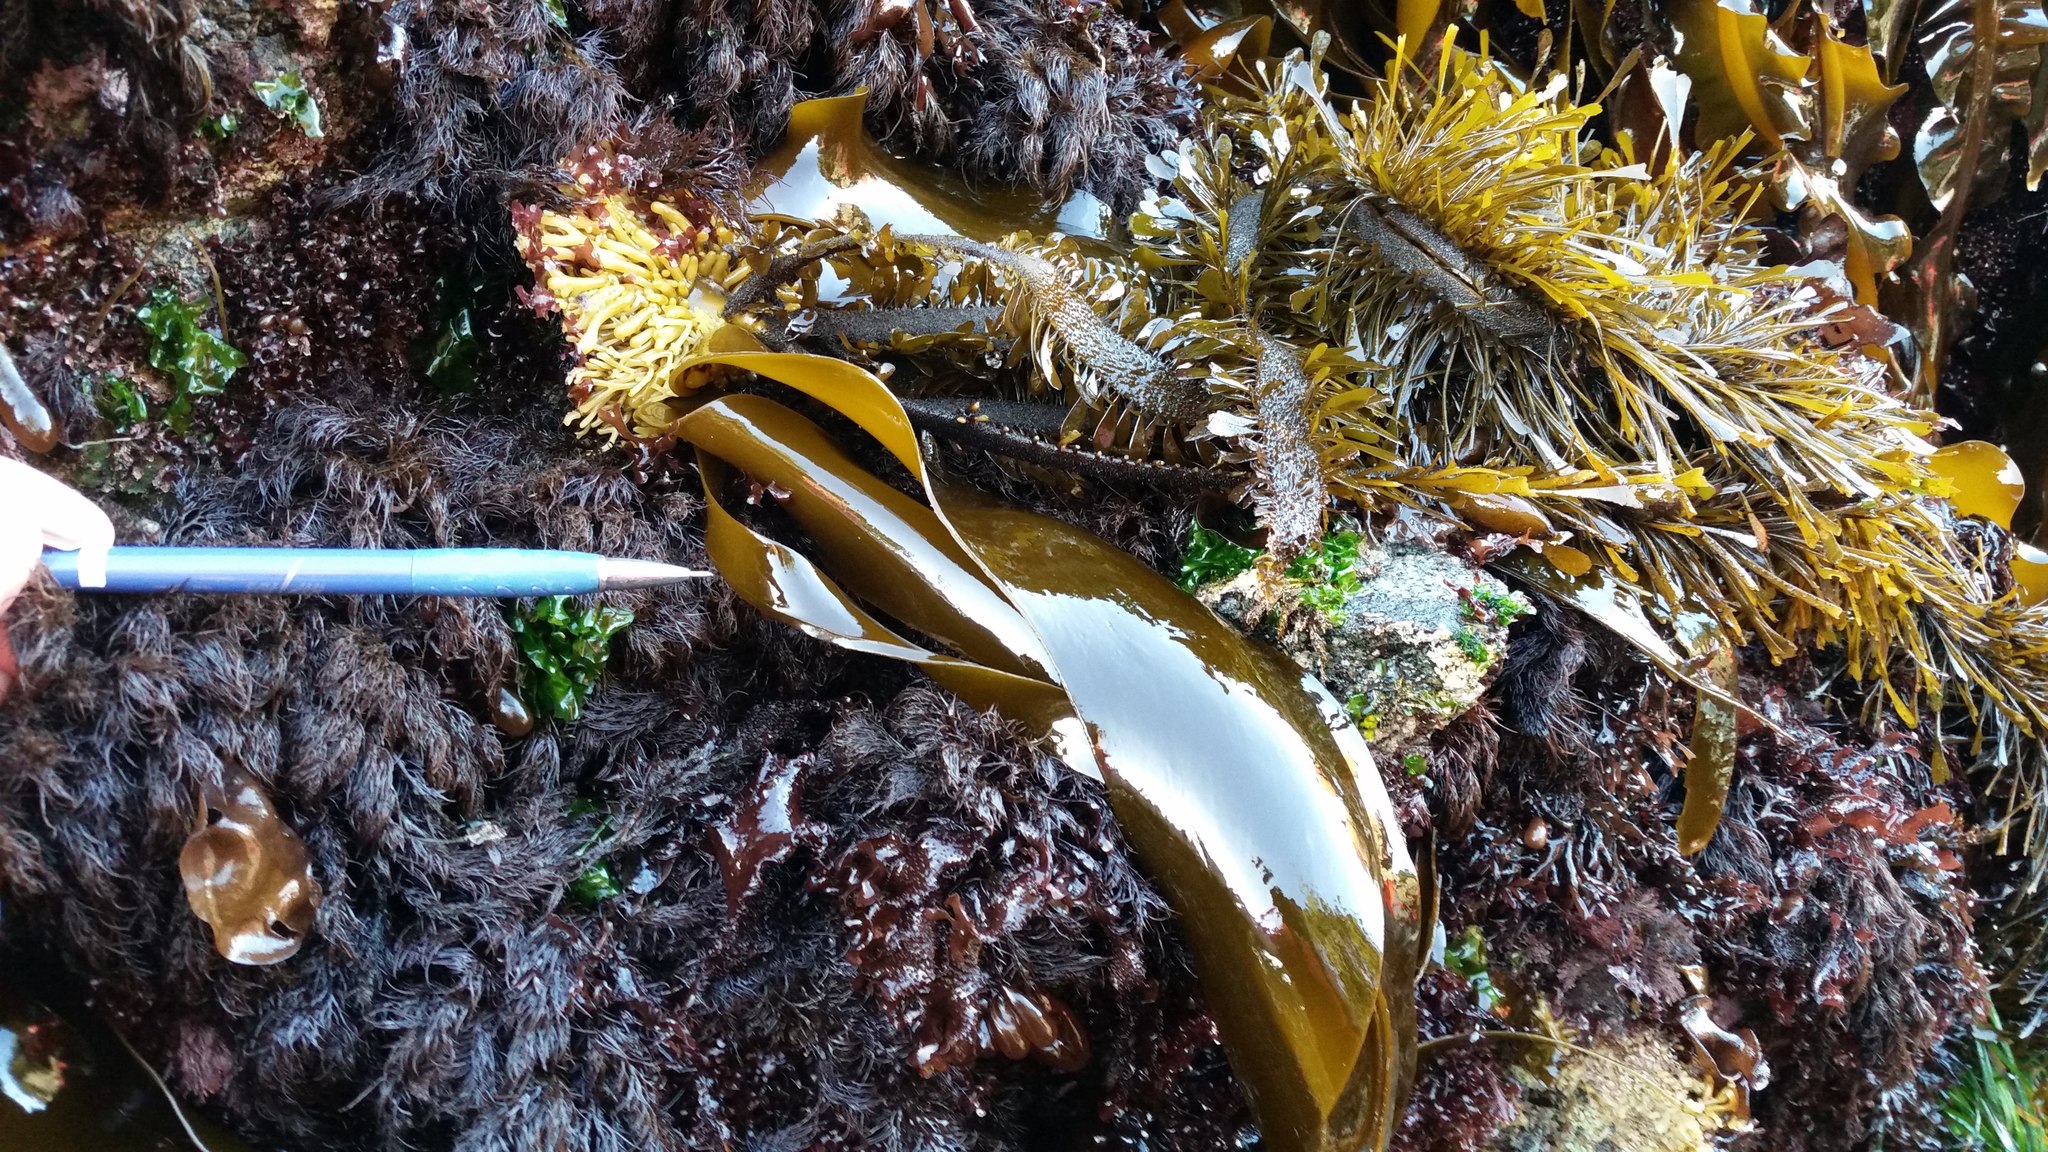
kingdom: Chromista
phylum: Ochrophyta
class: Phaeophyceae
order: Laminariales
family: Laminariaceae
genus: Hedophyllum
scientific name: Hedophyllum sessile
